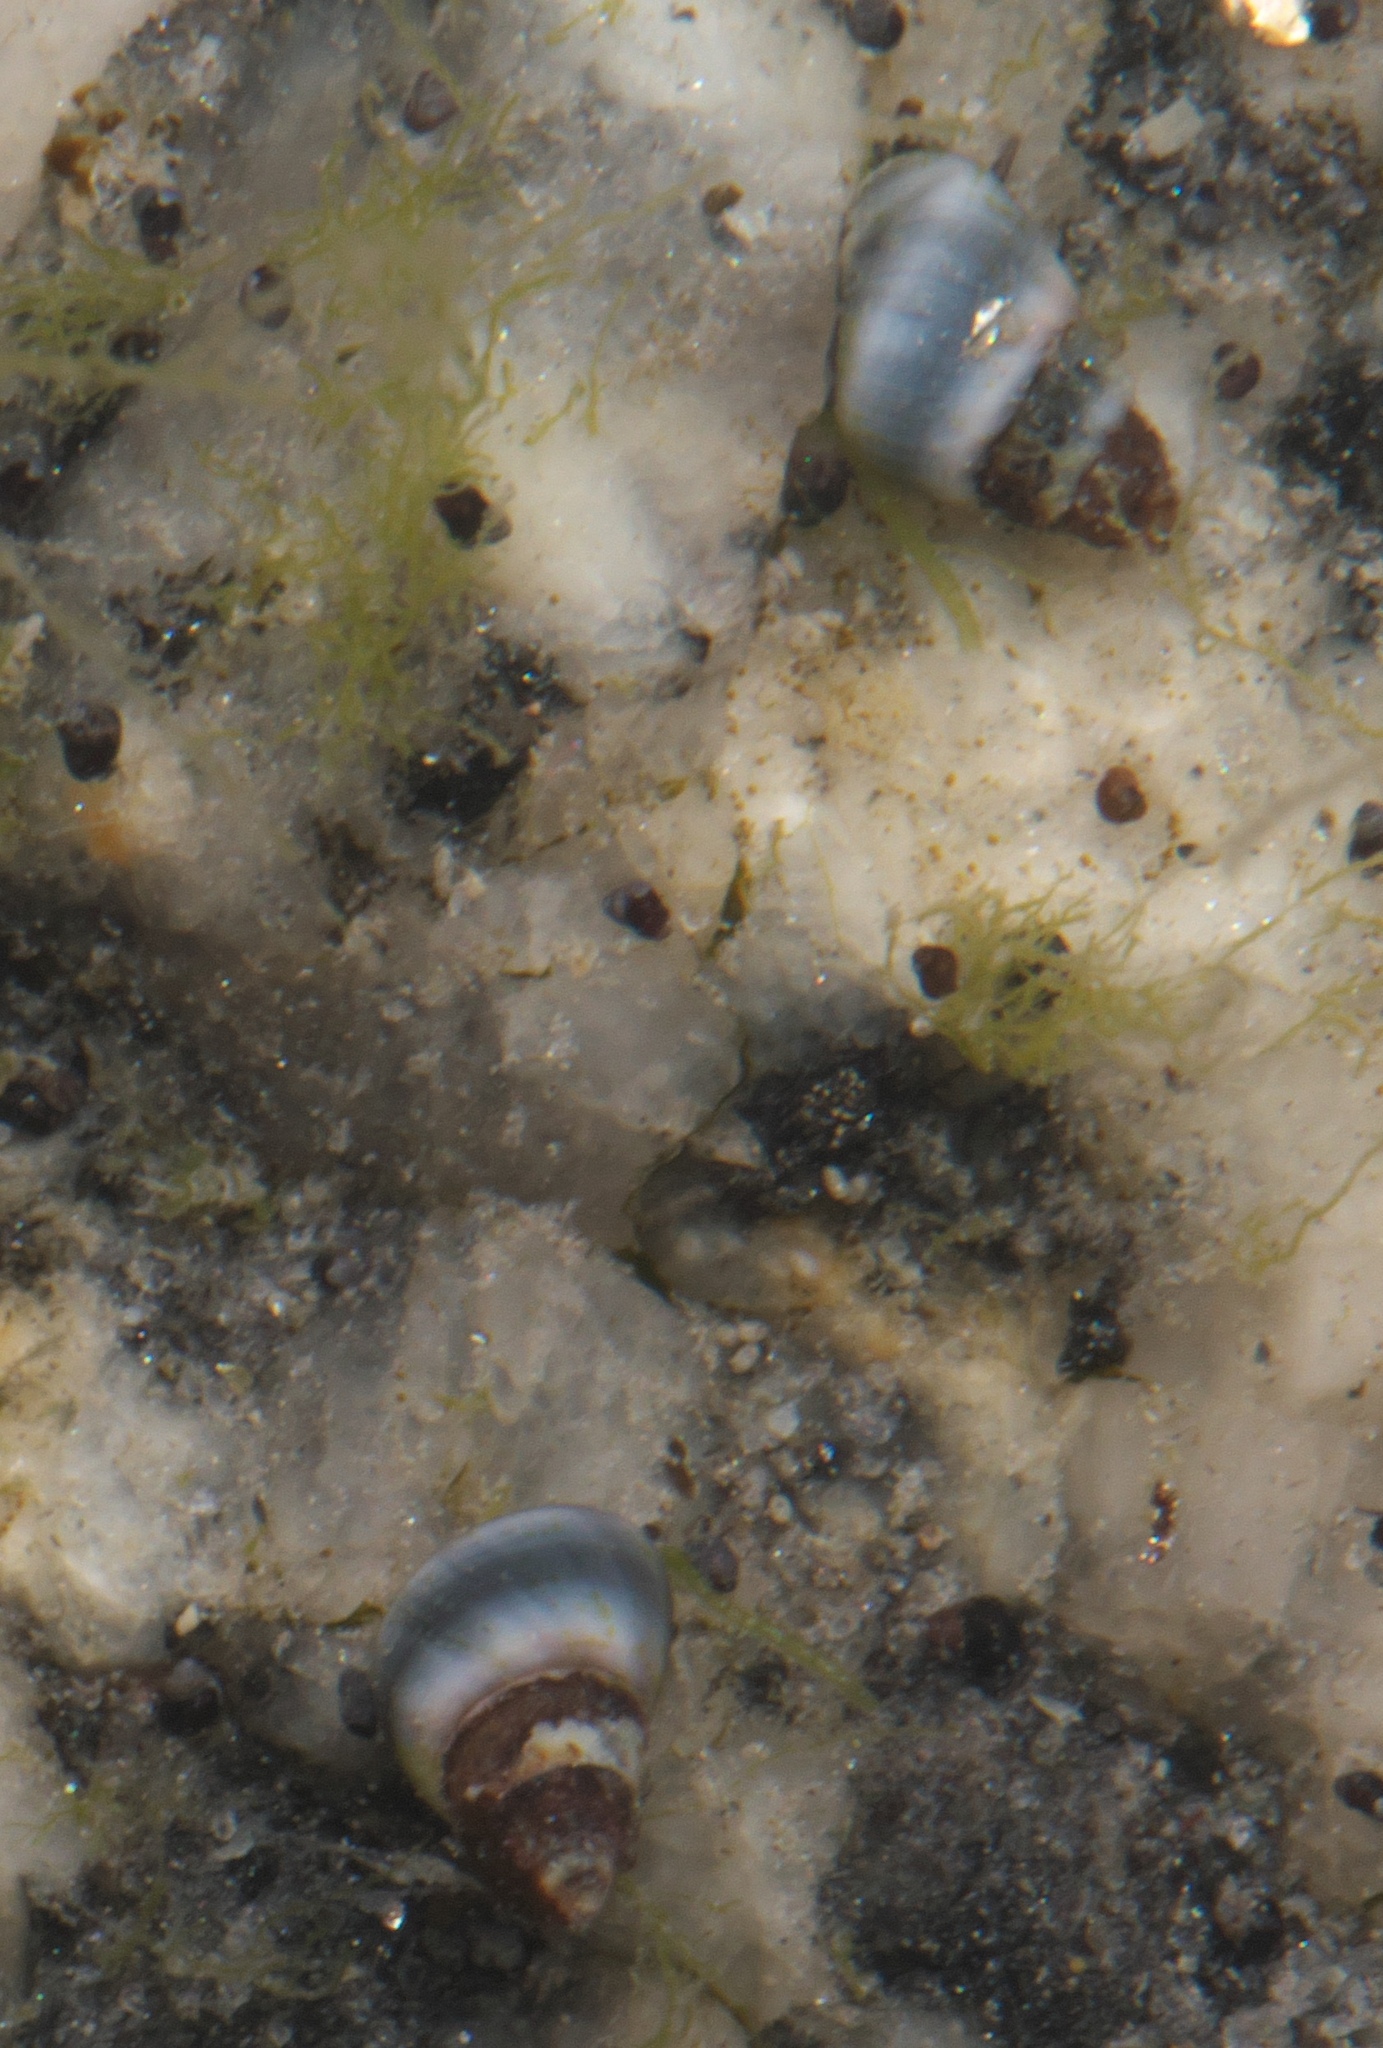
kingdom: Animalia
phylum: Mollusca
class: Gastropoda
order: Littorinimorpha
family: Littorinidae
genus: Austrolittorina
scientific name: Austrolittorina antipodum
